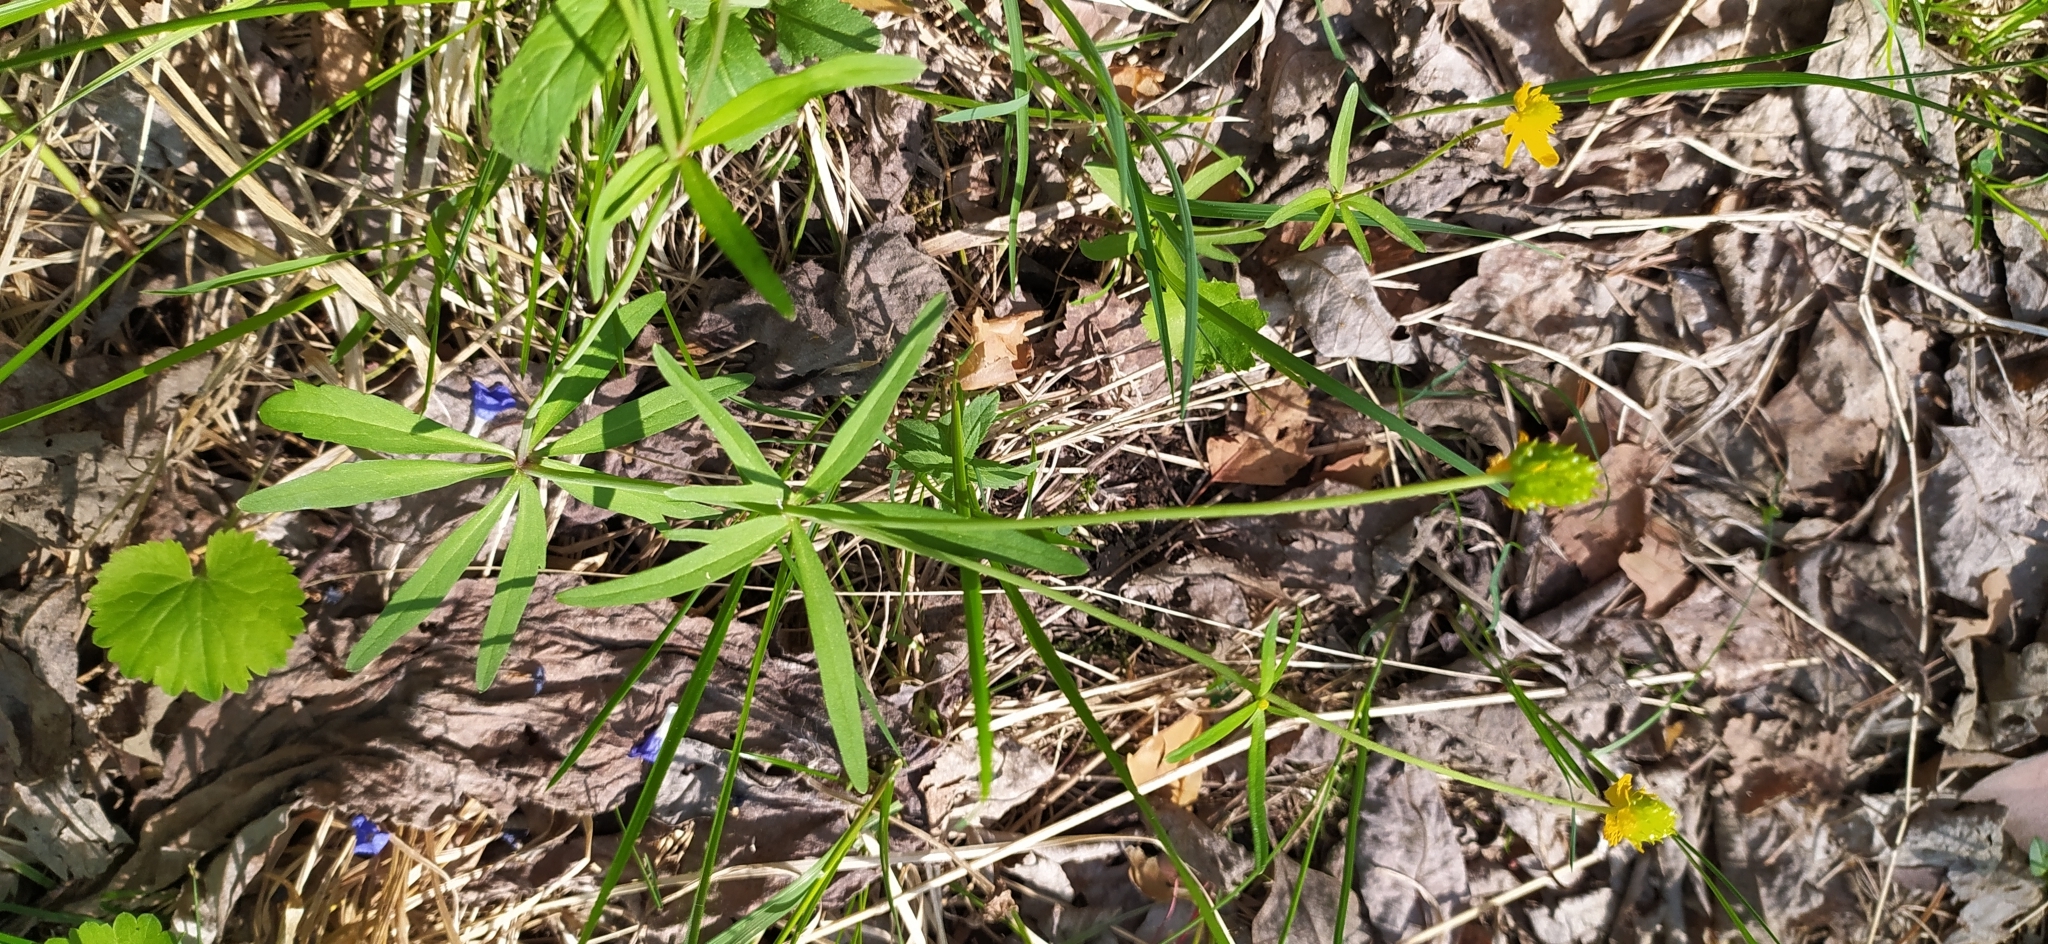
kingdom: Plantae
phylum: Tracheophyta
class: Magnoliopsida
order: Ranunculales
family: Ranunculaceae
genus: Ranunculus
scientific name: Ranunculus monophyllus
